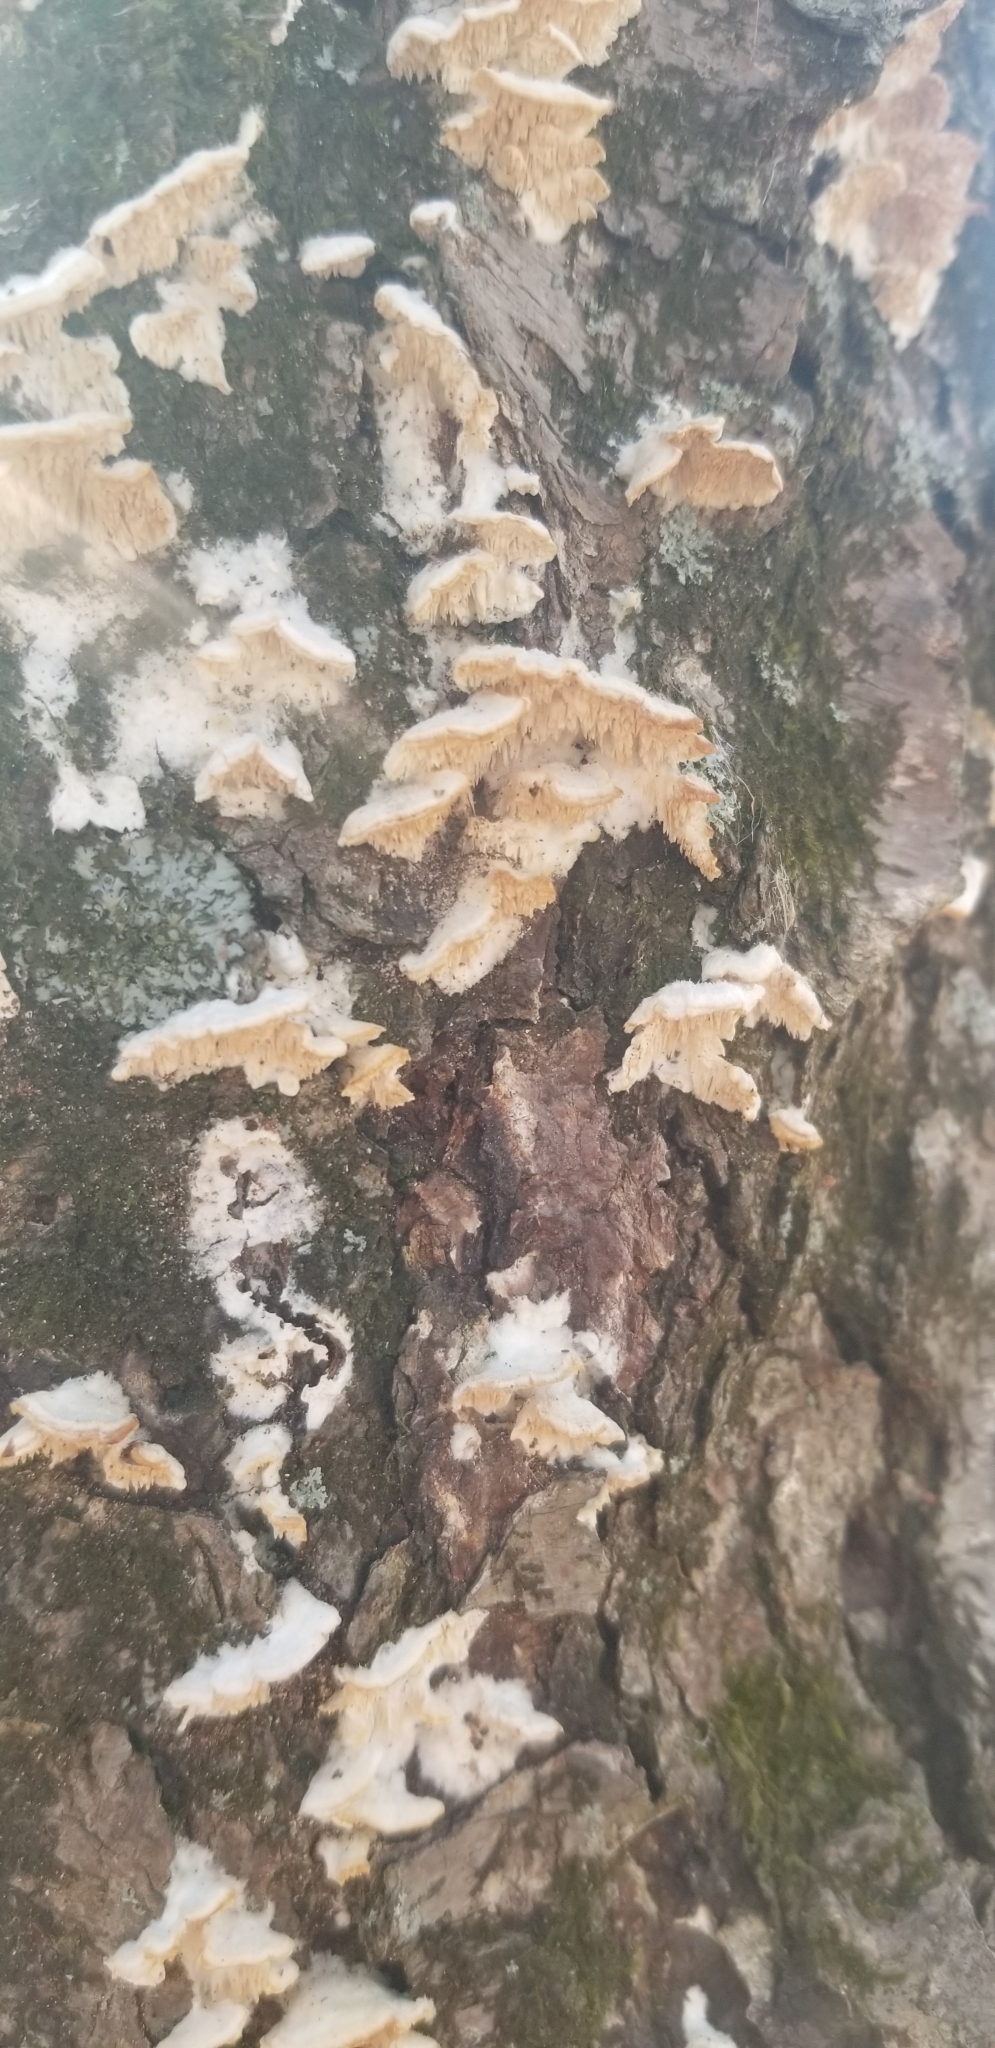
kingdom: Fungi
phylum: Basidiomycota
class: Agaricomycetes
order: Polyporales
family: Irpicaceae
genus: Irpex
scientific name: Irpex lacteus
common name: Milk-white toothed polypore
